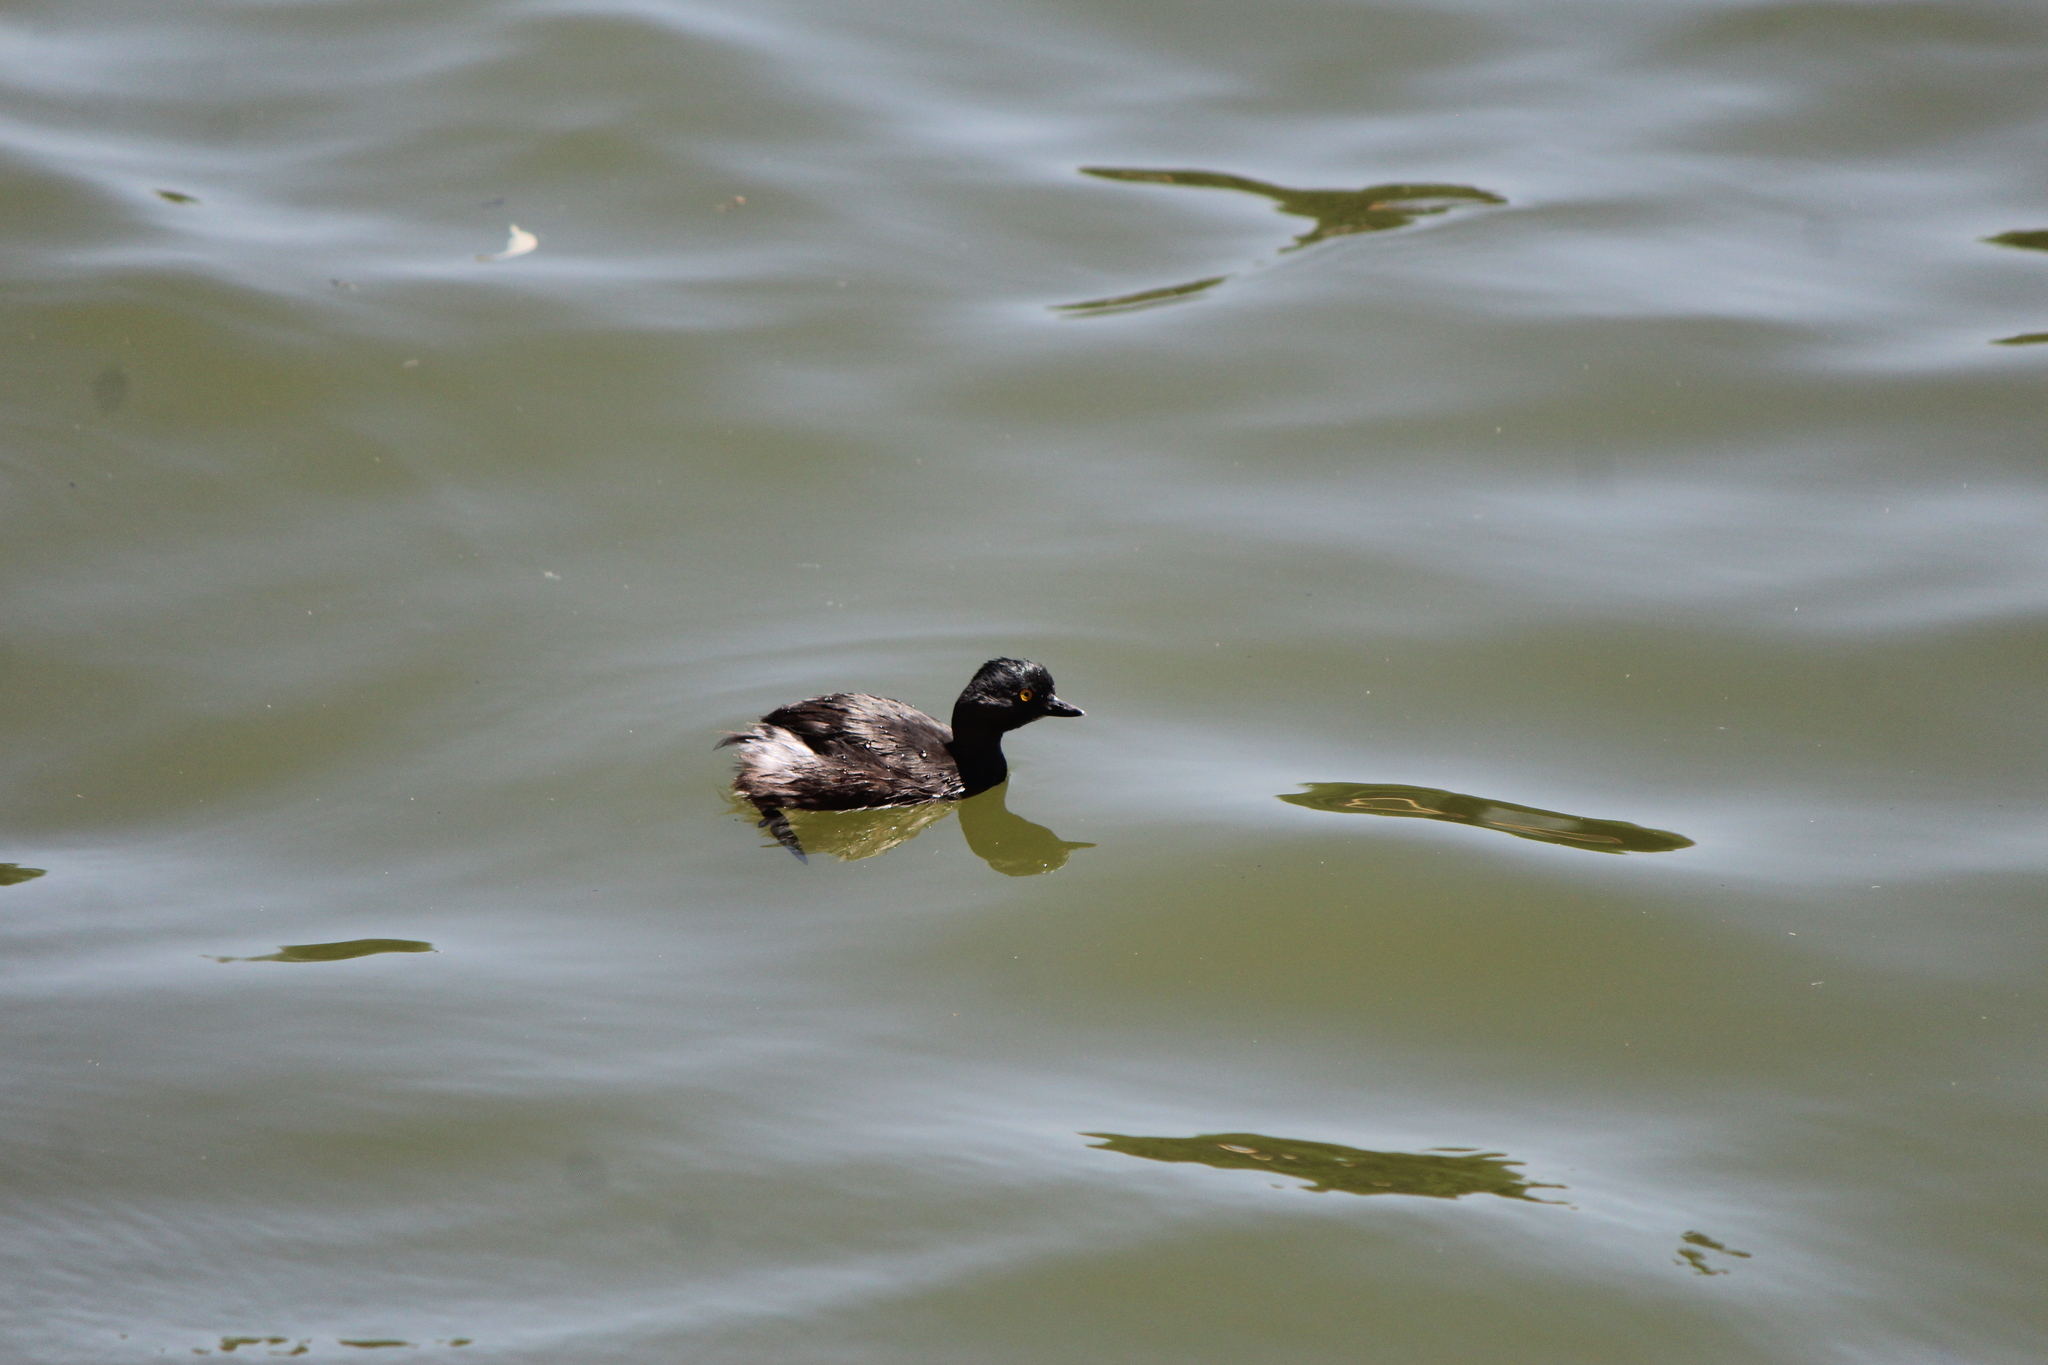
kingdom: Animalia
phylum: Chordata
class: Aves
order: Podicipediformes
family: Podicipedidae
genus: Tachybaptus
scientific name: Tachybaptus dominicus
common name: Least grebe
